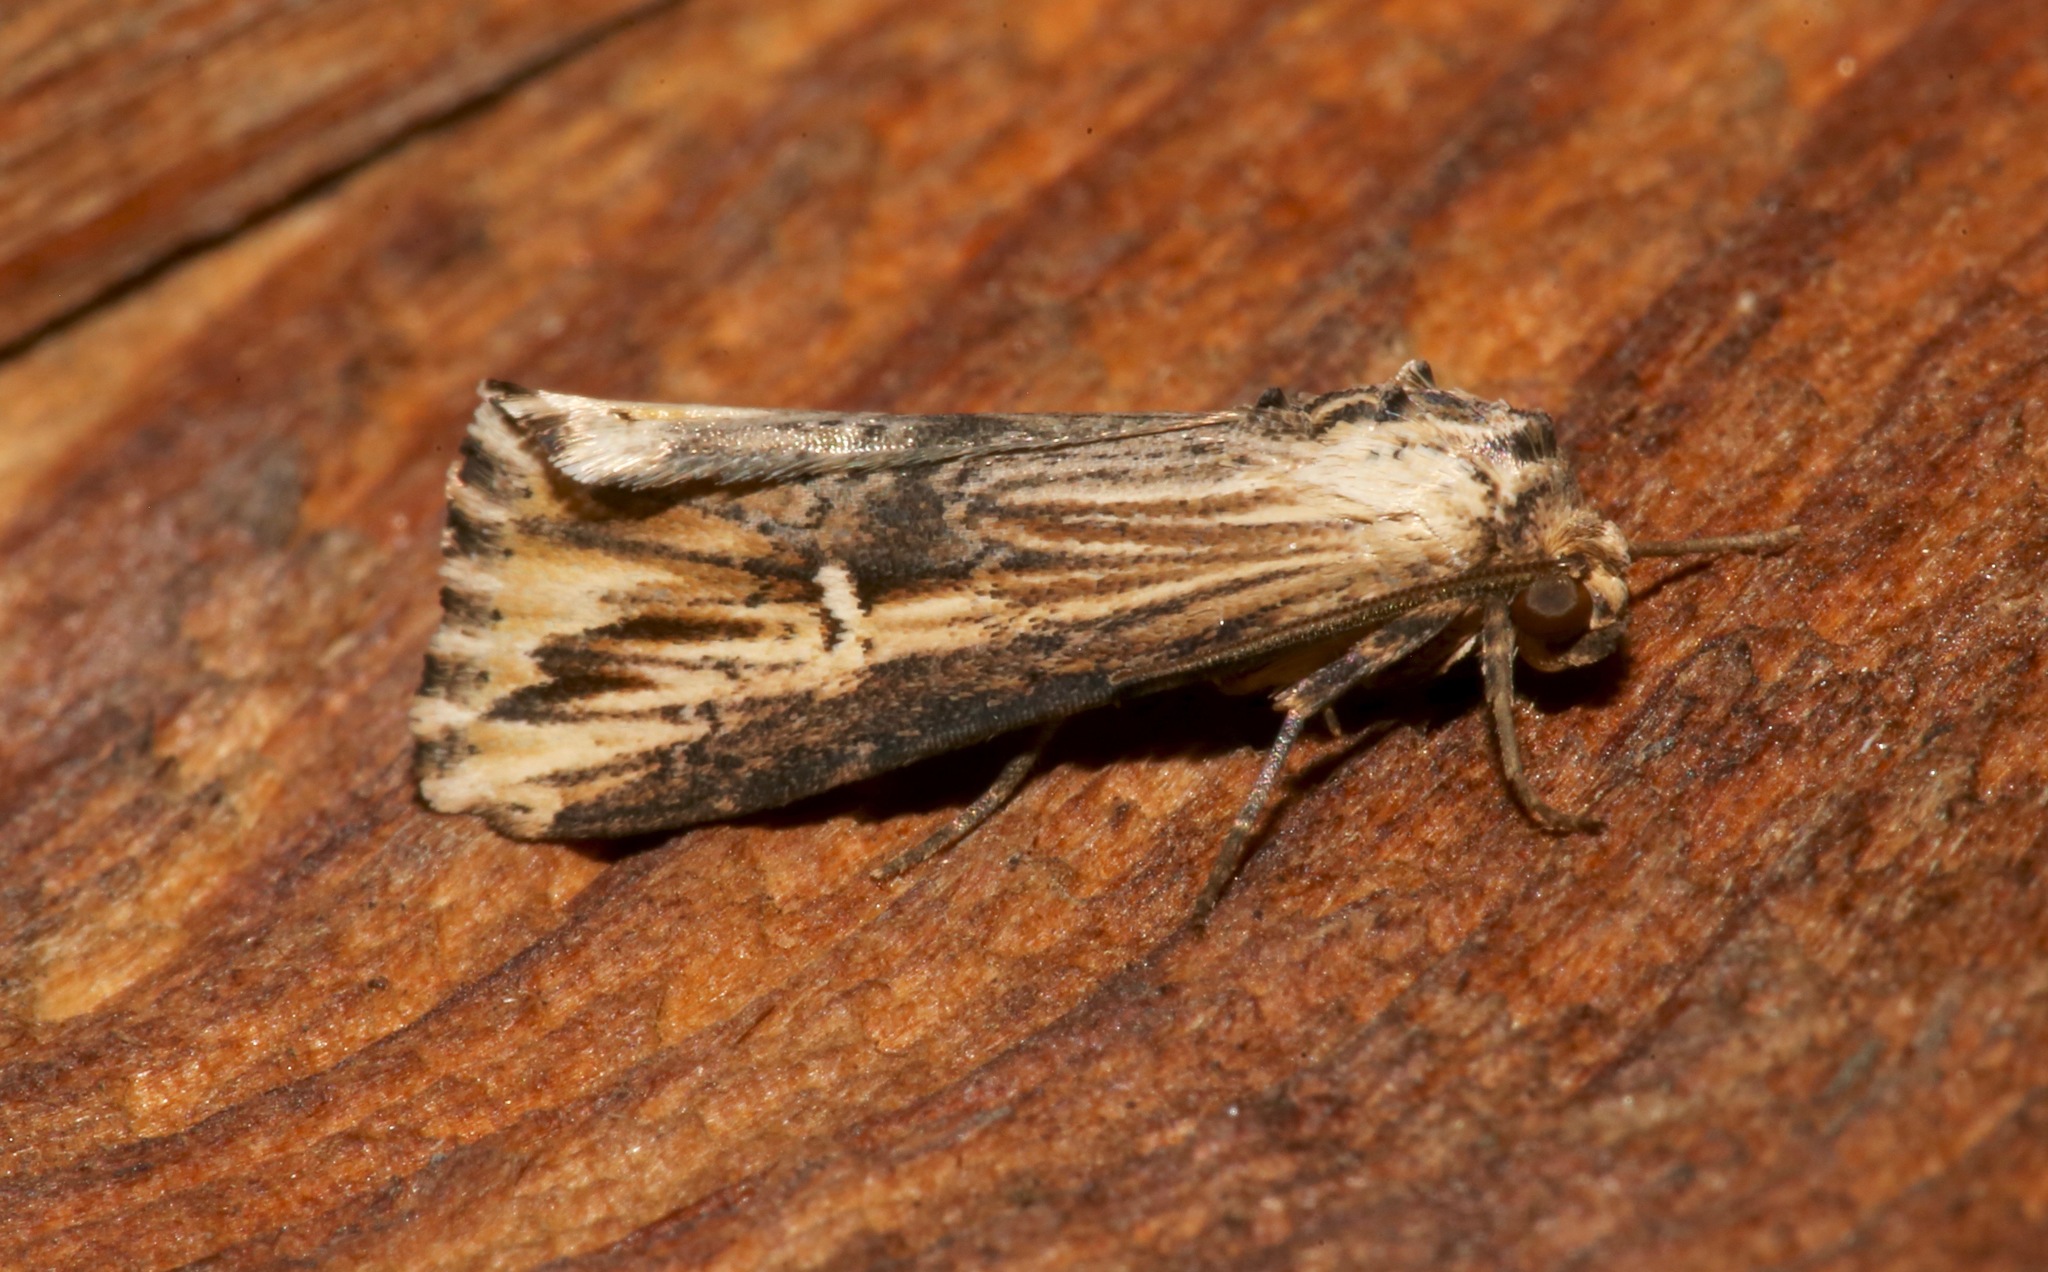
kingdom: Animalia
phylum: Arthropoda
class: Insecta
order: Lepidoptera
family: Noctuidae
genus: Crambodes
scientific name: Crambodes talidiformis
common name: Verbena moth
